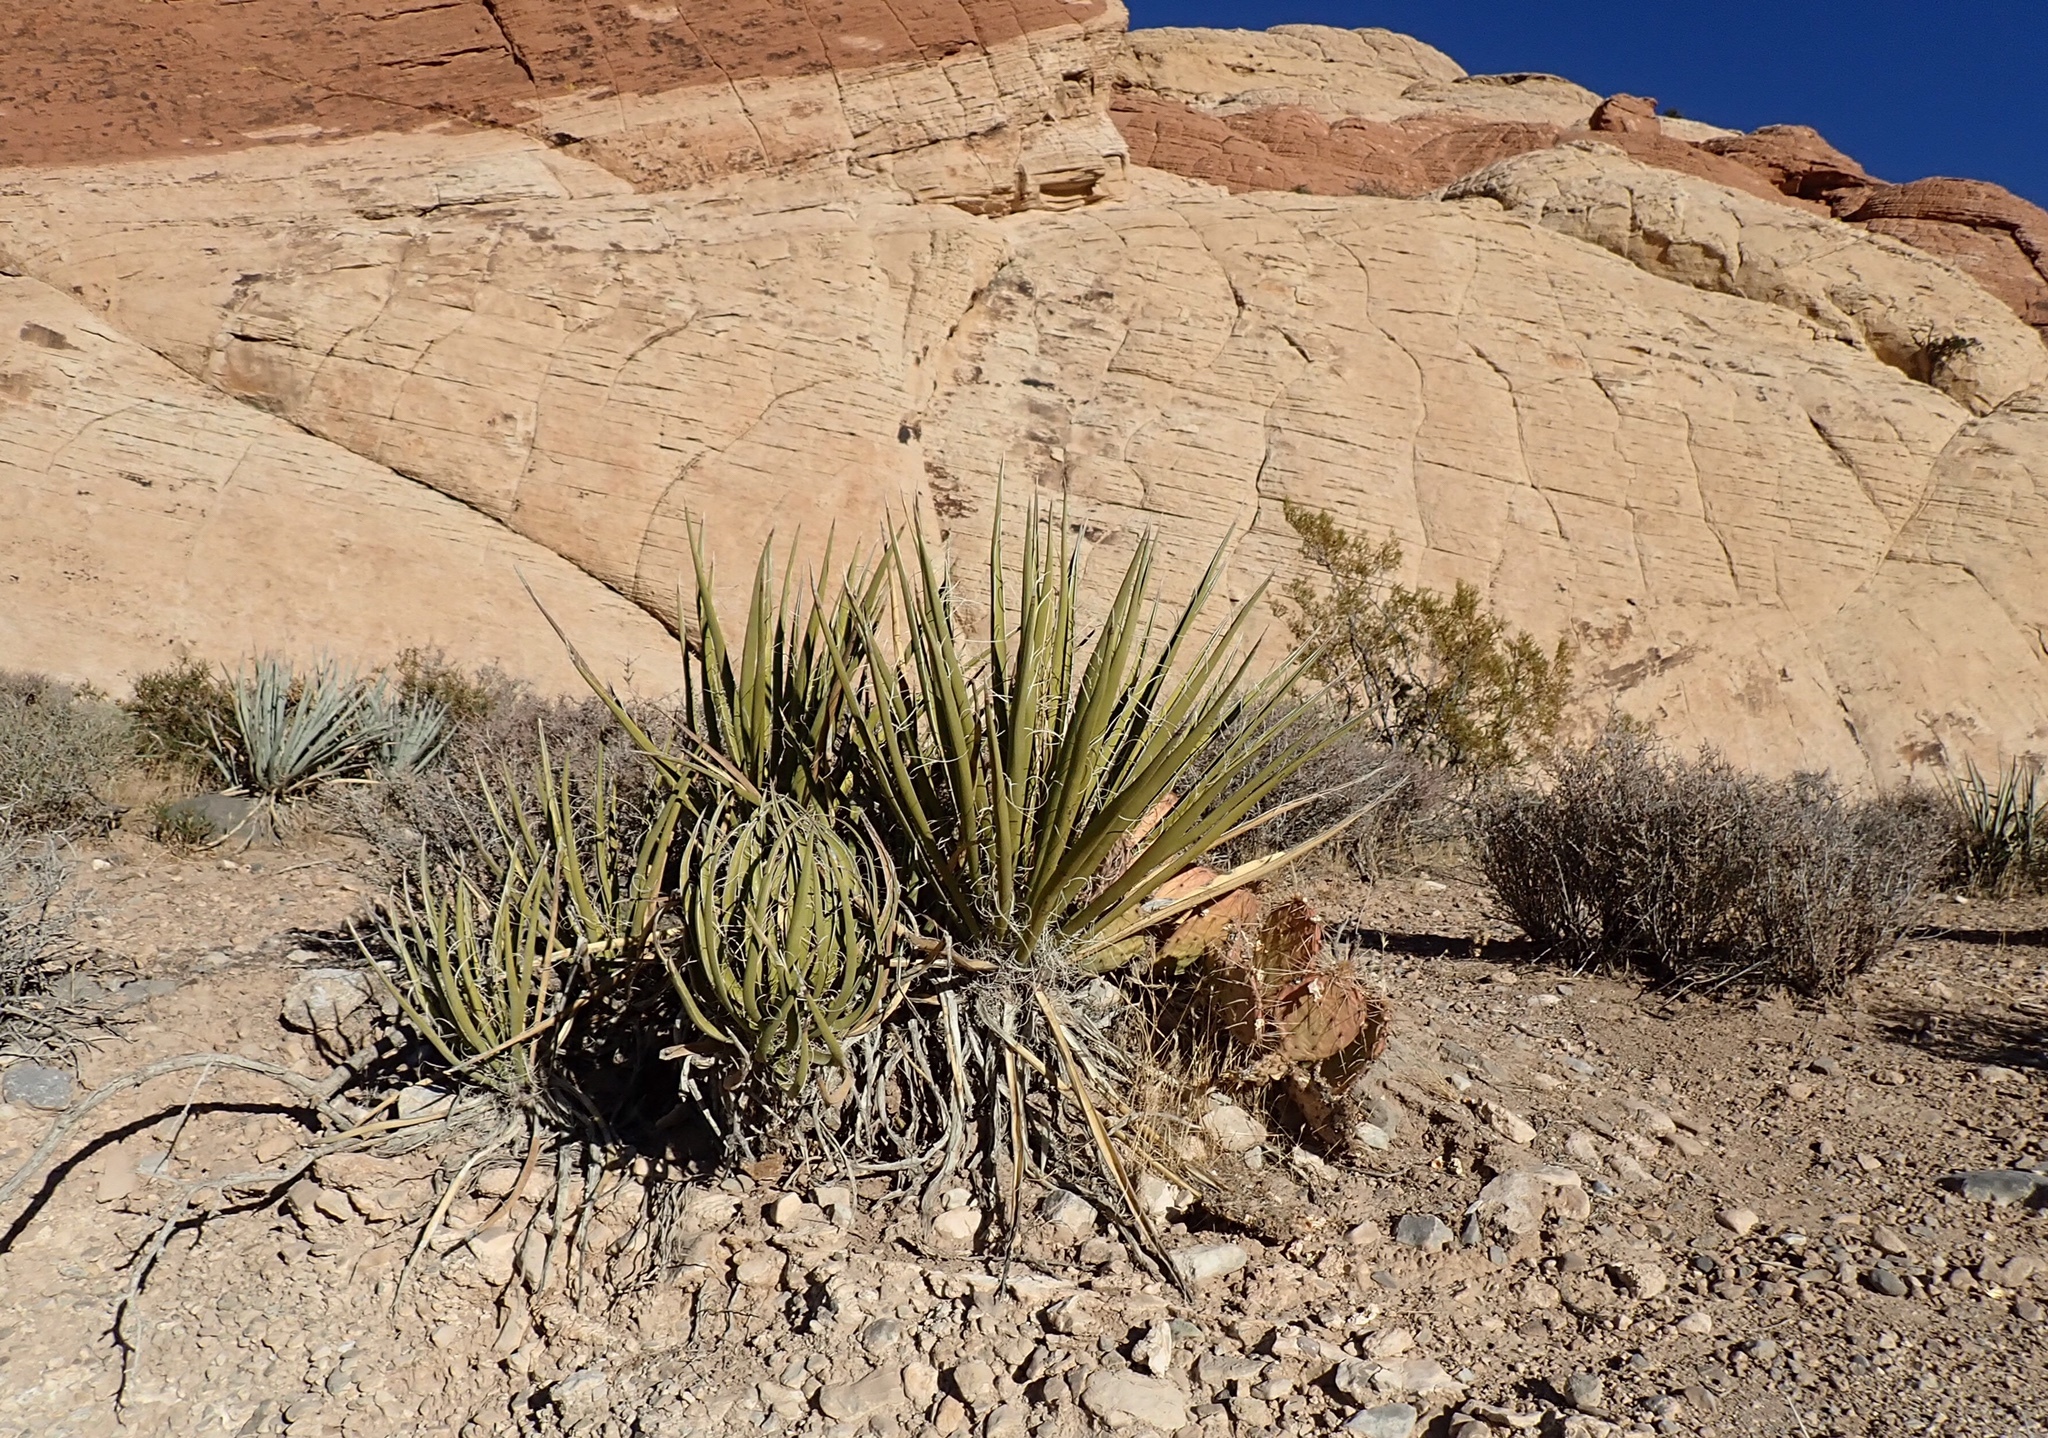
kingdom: Plantae
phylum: Tracheophyta
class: Liliopsida
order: Asparagales
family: Asparagaceae
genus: Yucca
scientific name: Yucca baccata
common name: Banana yucca
